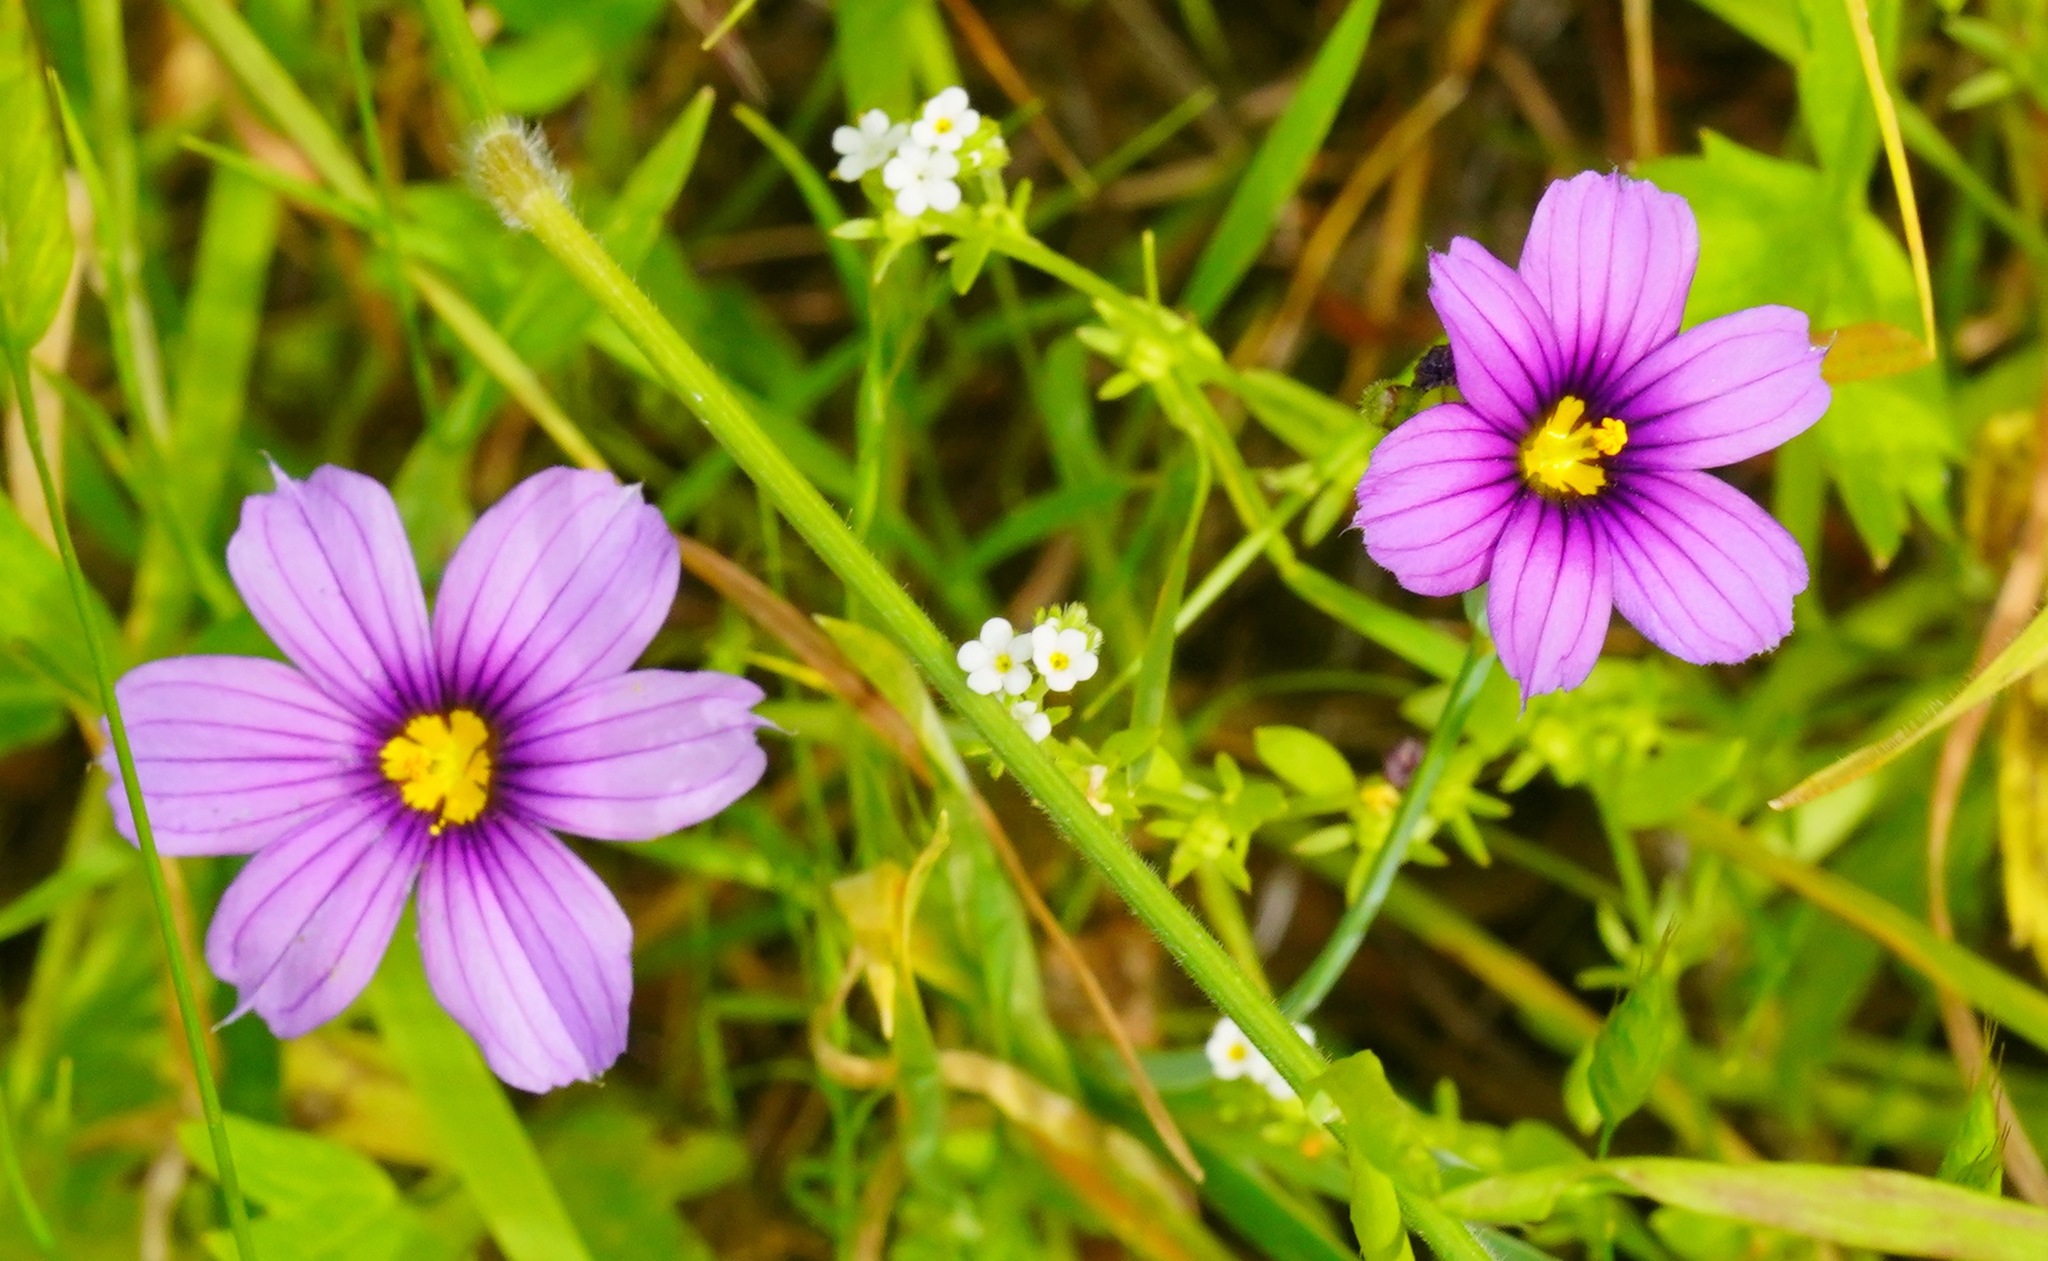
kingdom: Plantae
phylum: Tracheophyta
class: Liliopsida
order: Asparagales
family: Iridaceae
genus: Sisyrinchium
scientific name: Sisyrinchium bellum
